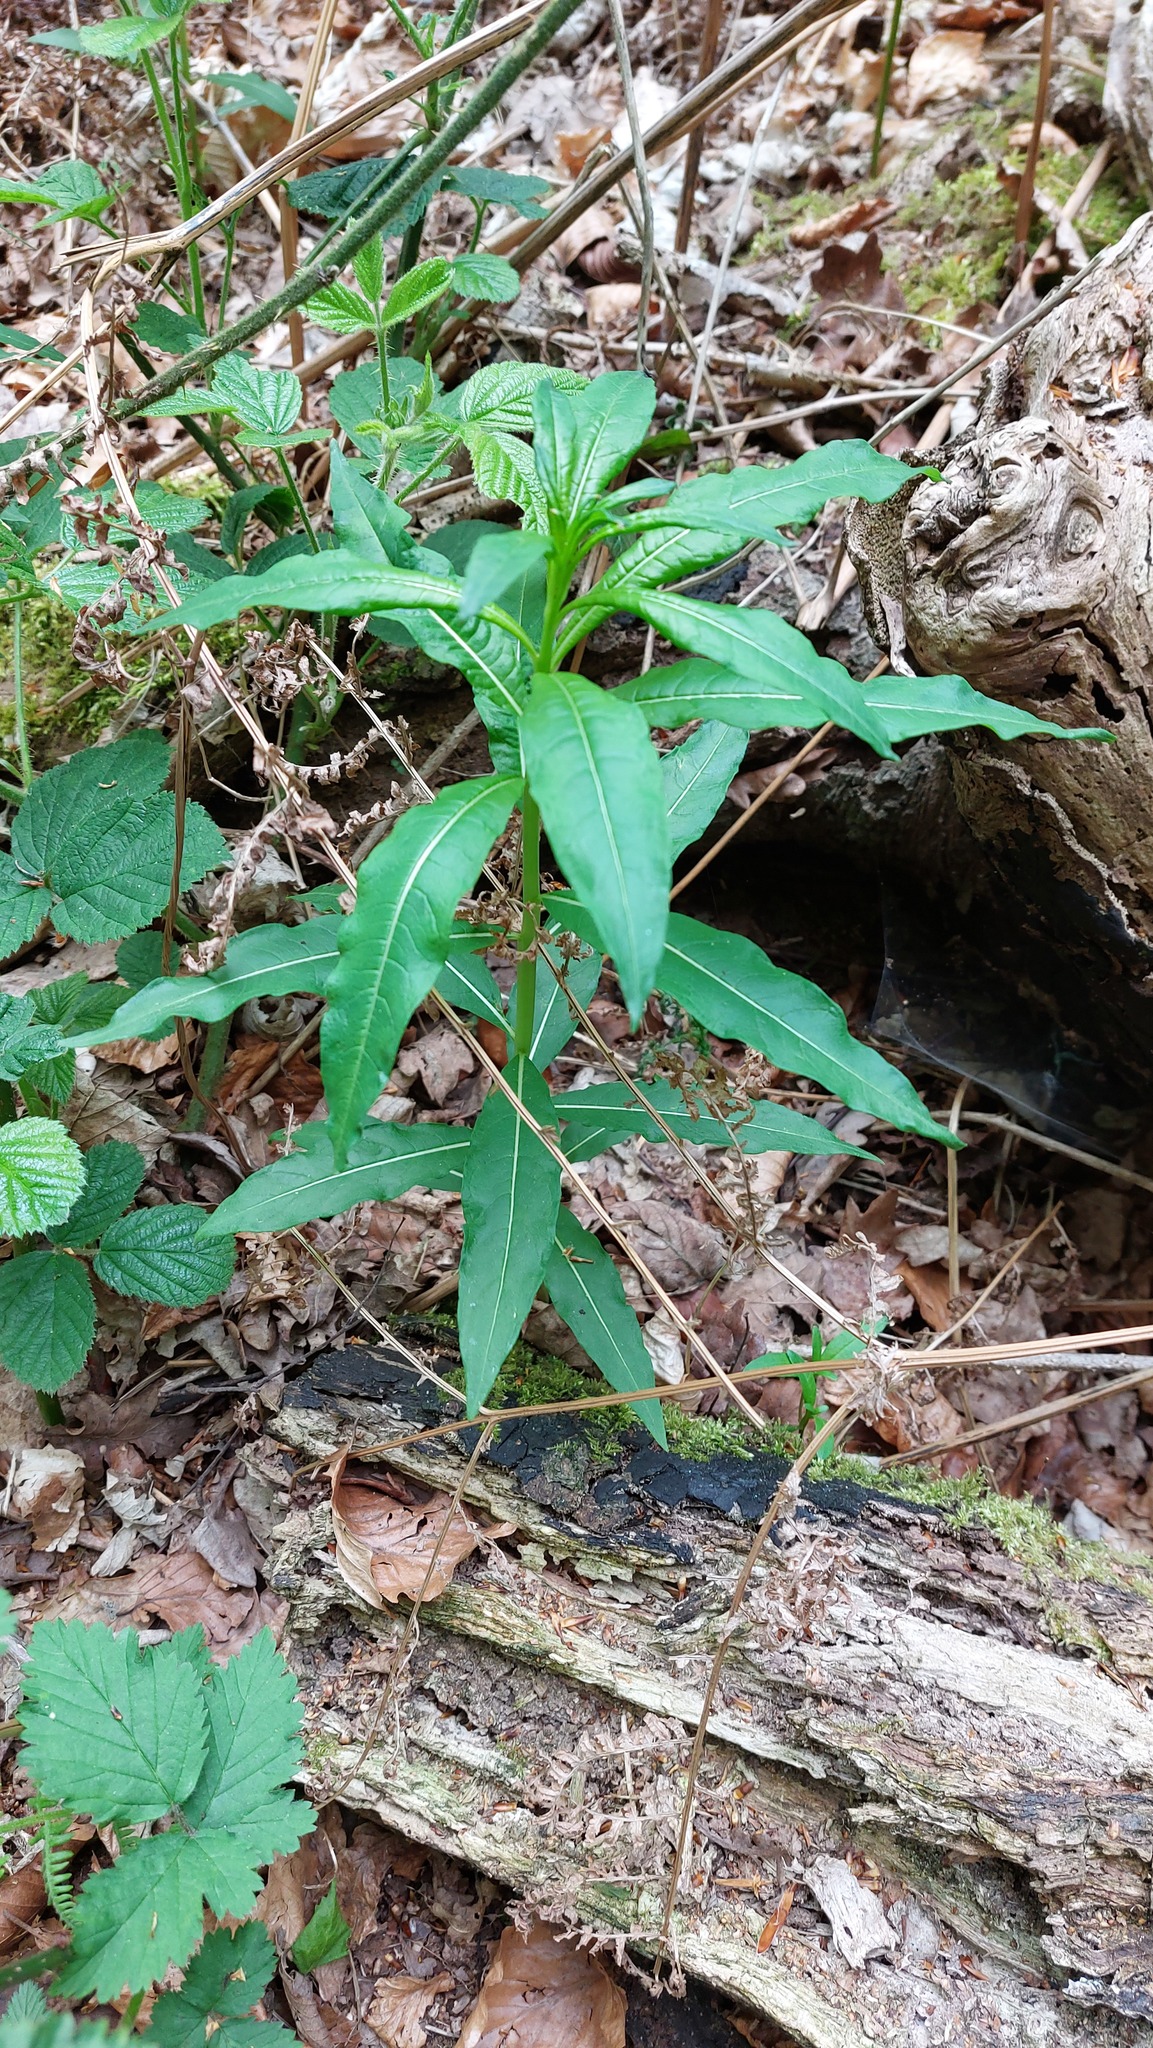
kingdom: Plantae
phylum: Tracheophyta
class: Magnoliopsida
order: Myrtales
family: Onagraceae
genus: Chamaenerion
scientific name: Chamaenerion angustifolium
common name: Fireweed
